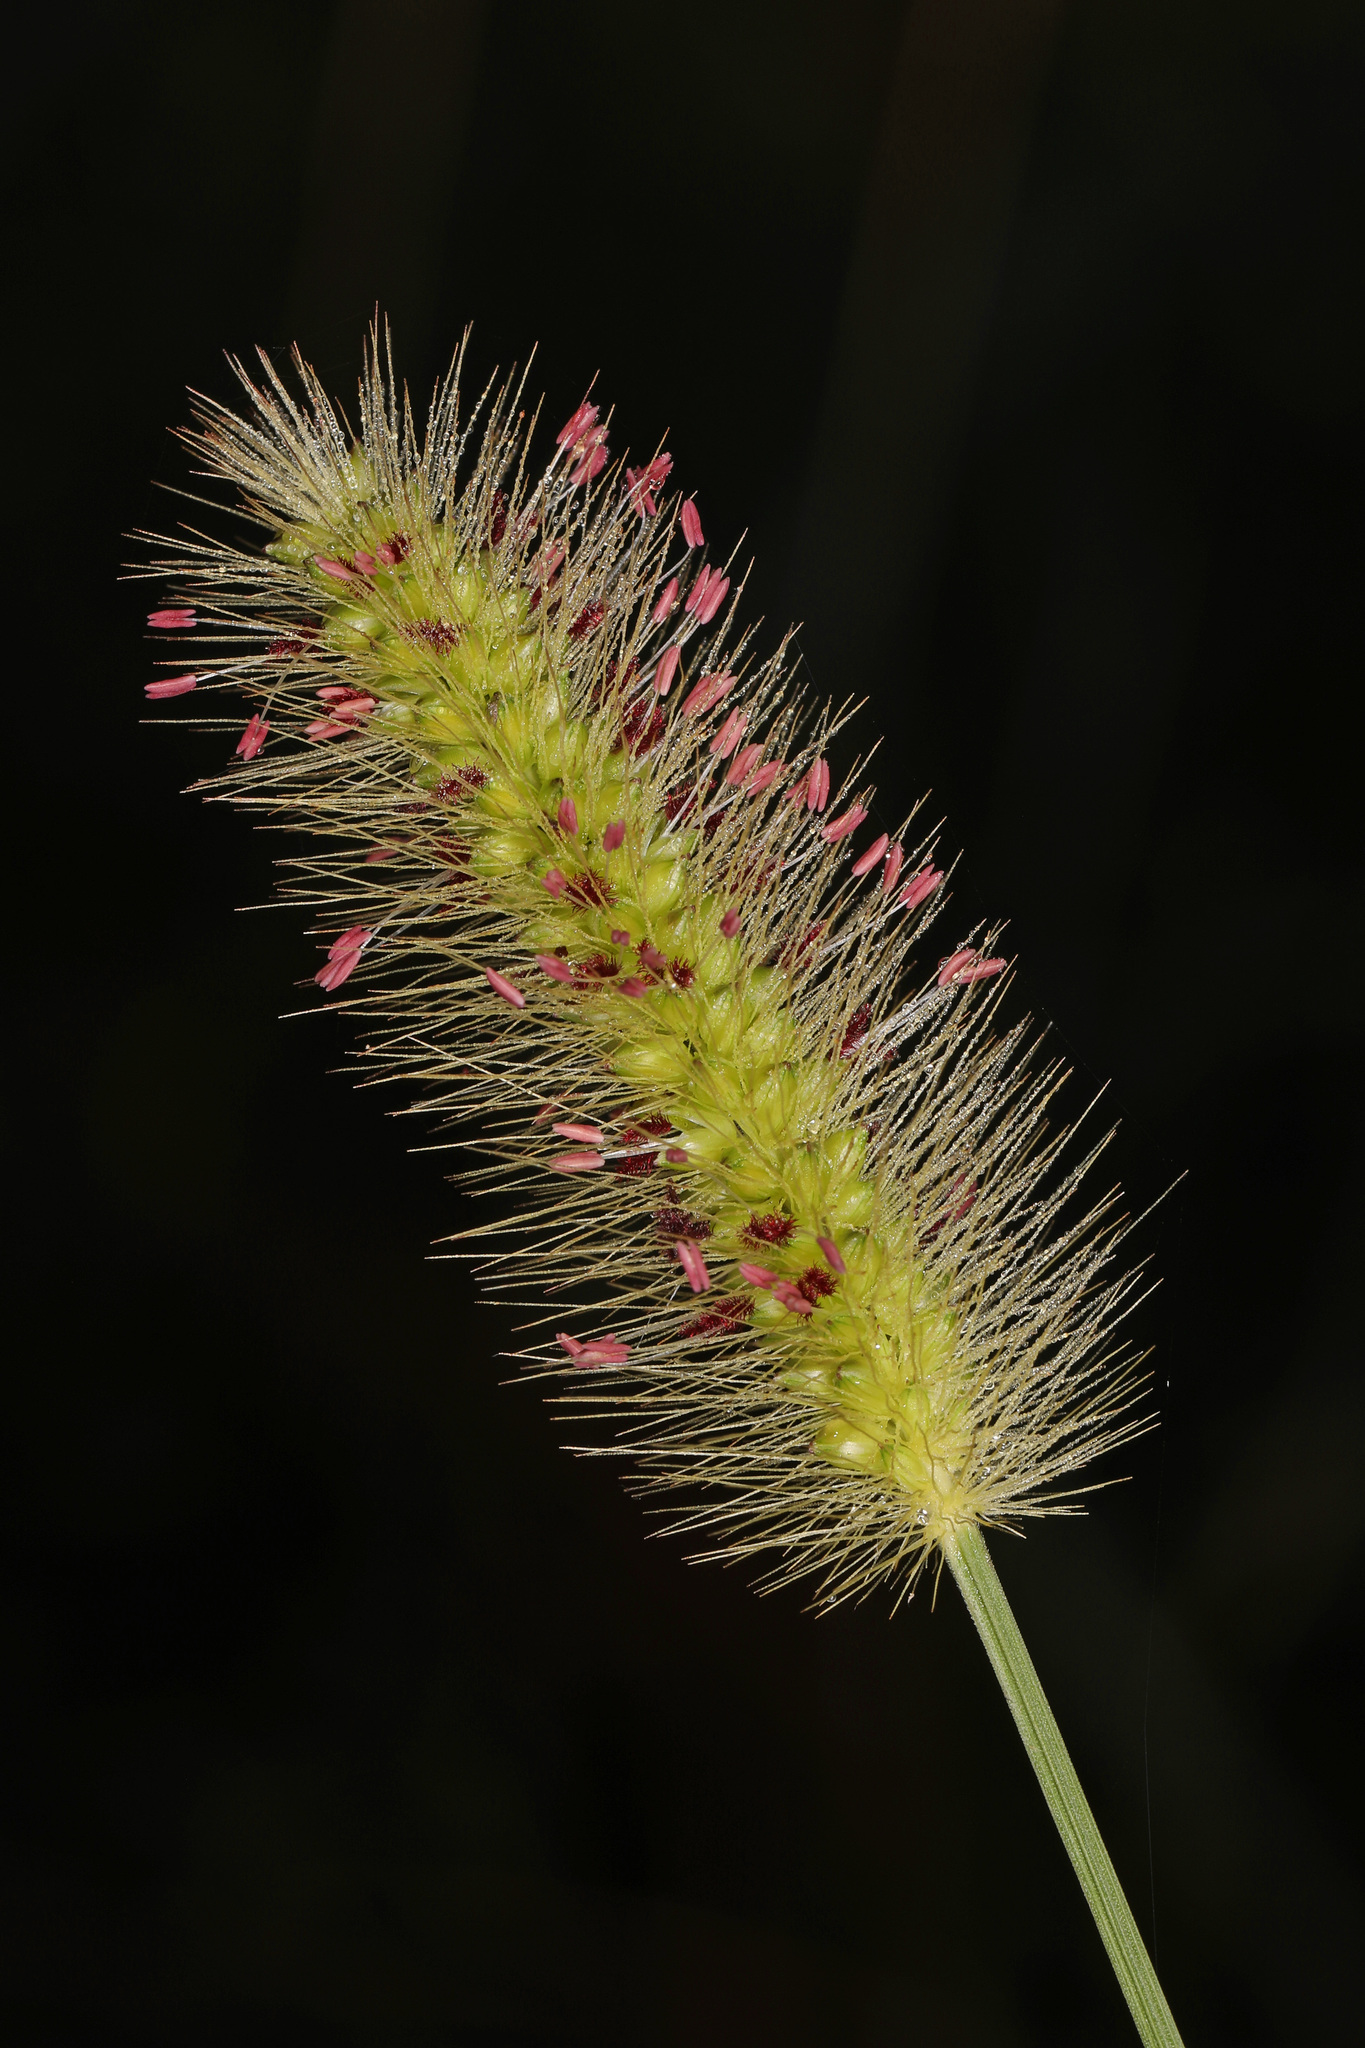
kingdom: Plantae
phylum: Tracheophyta
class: Liliopsida
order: Poales
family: Poaceae
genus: Setaria
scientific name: Setaria parviflora
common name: Knotroot bristle-grass
